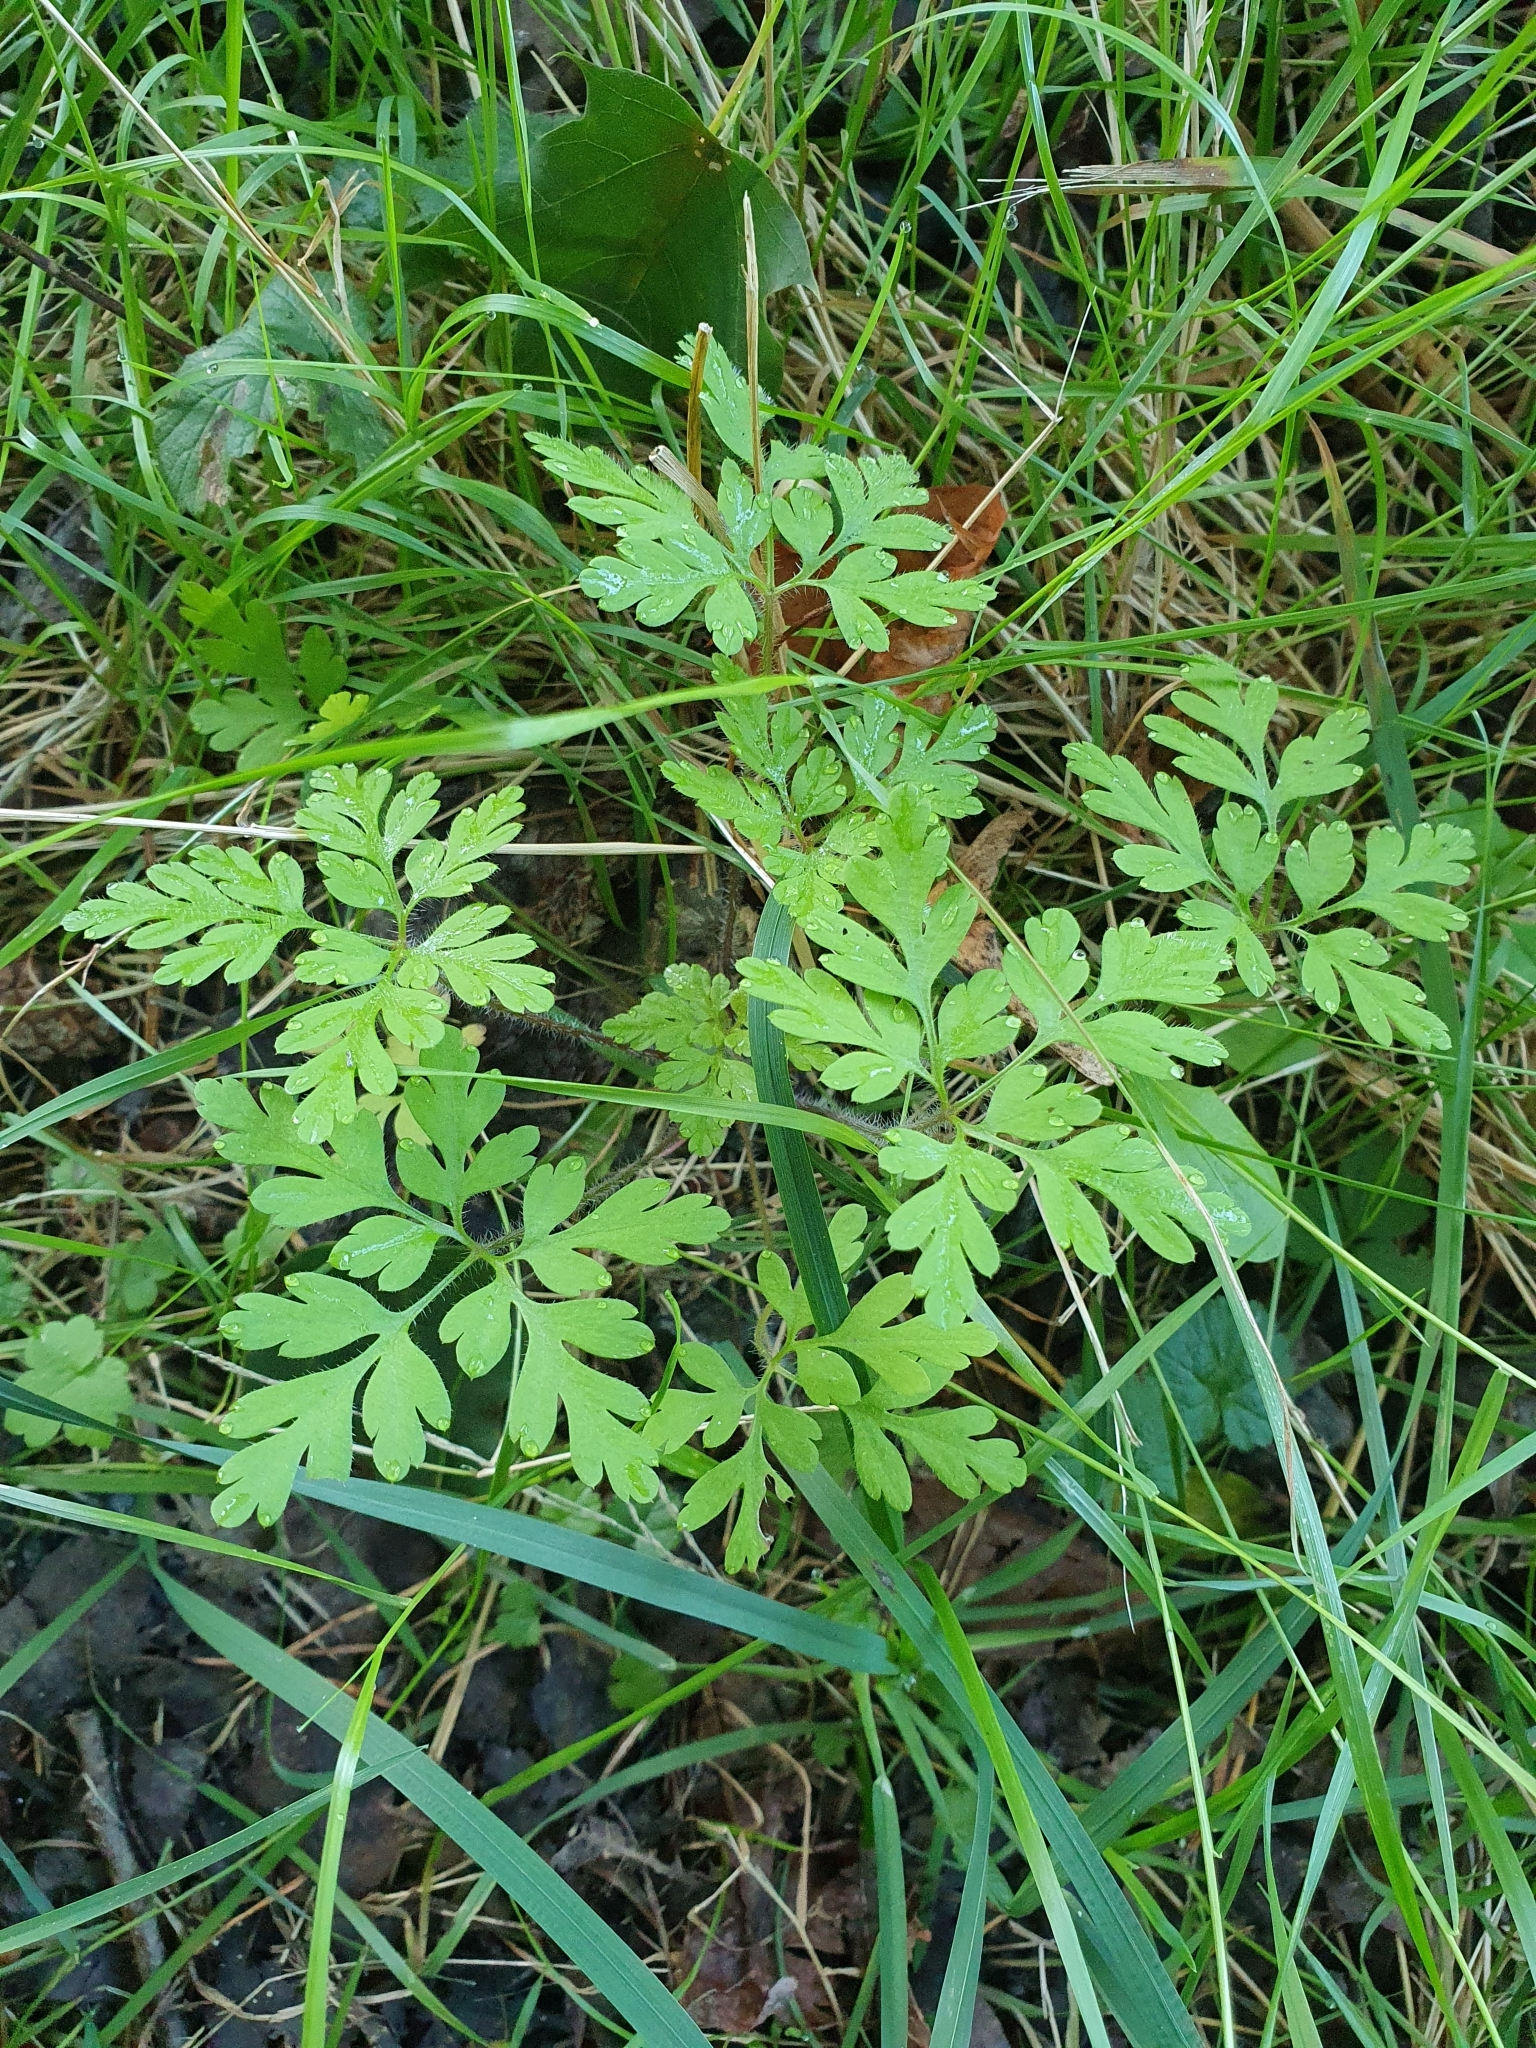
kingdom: Plantae
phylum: Tracheophyta
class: Magnoliopsida
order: Geraniales
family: Geraniaceae
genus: Geranium
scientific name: Geranium robertianum
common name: Herb-robert
